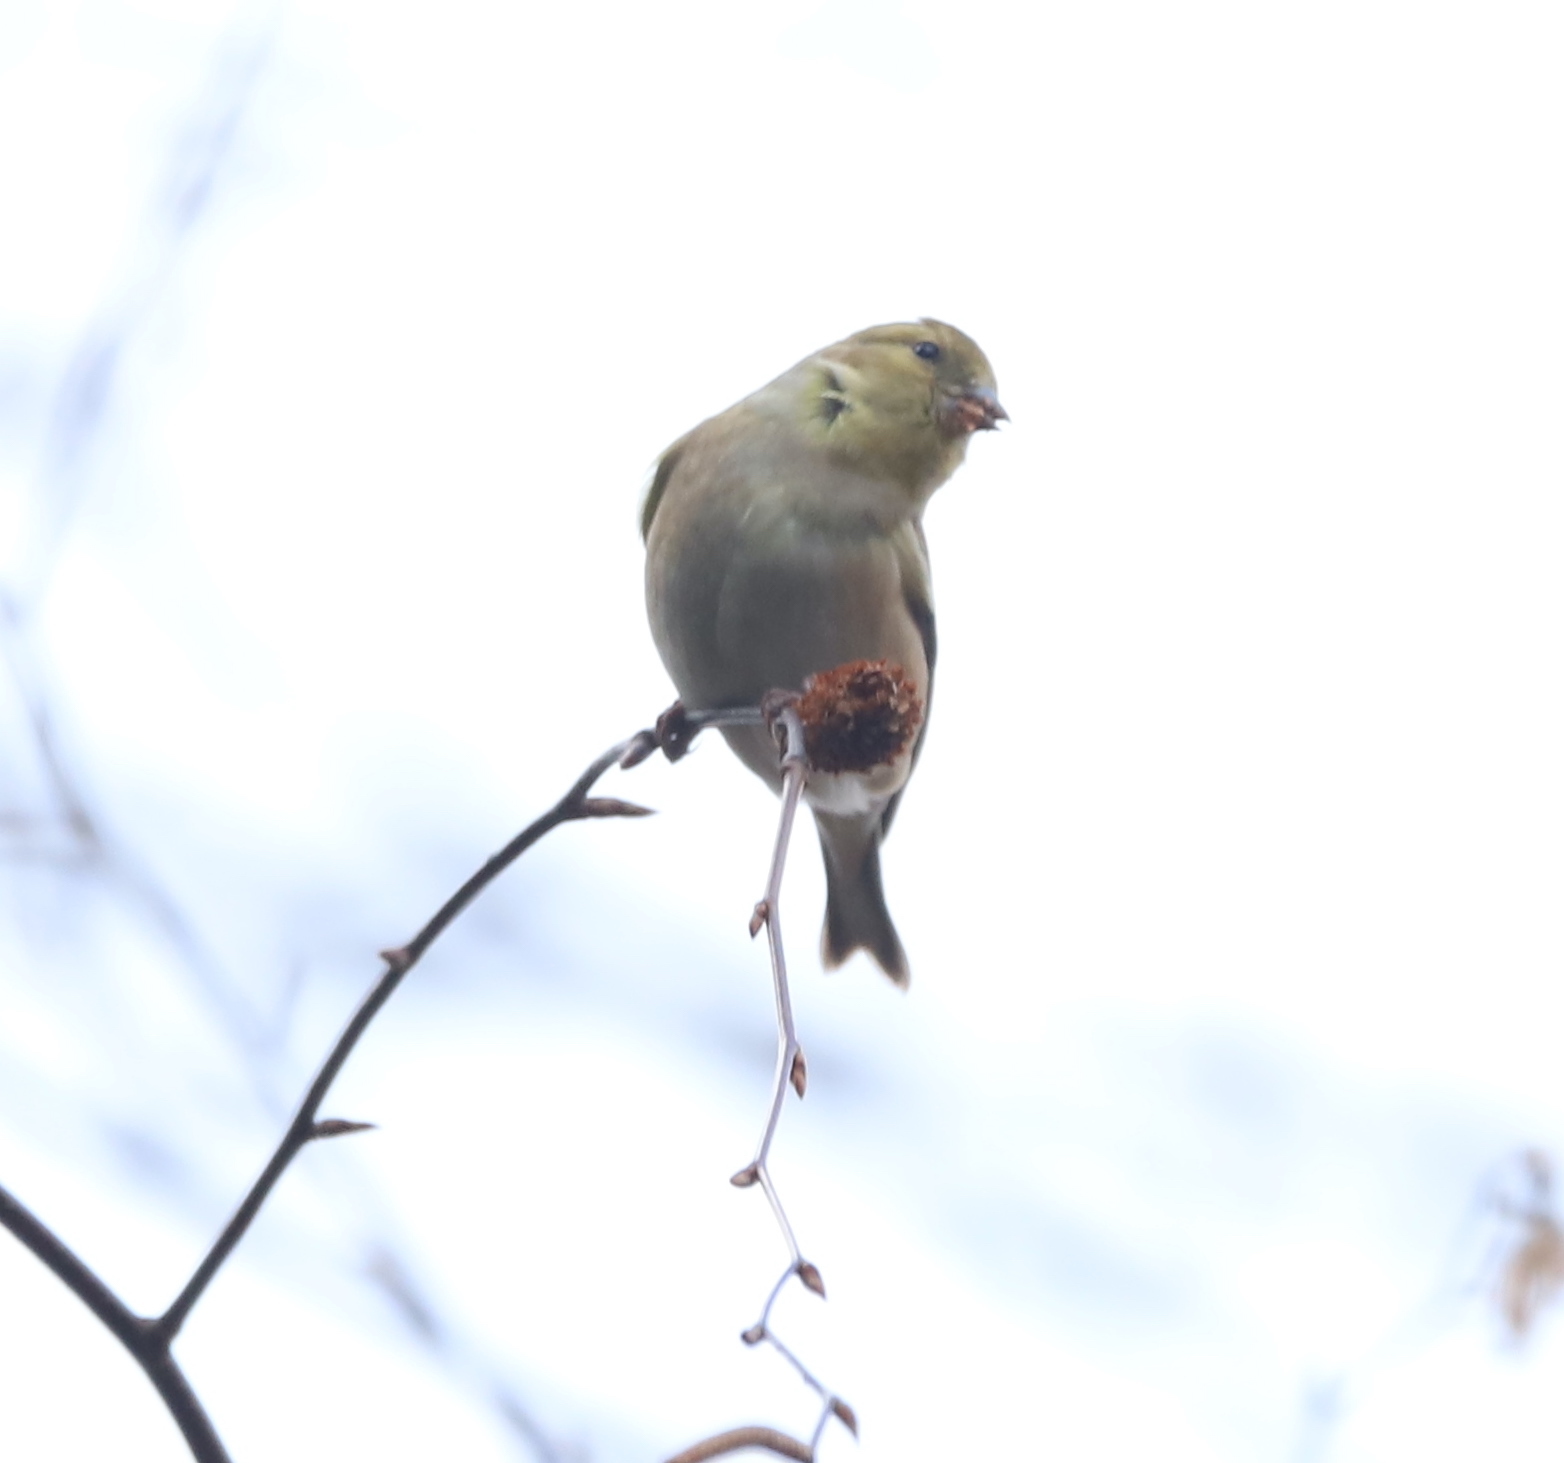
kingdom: Animalia
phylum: Chordata
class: Aves
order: Passeriformes
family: Fringillidae
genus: Spinus
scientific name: Spinus tristis
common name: American goldfinch
